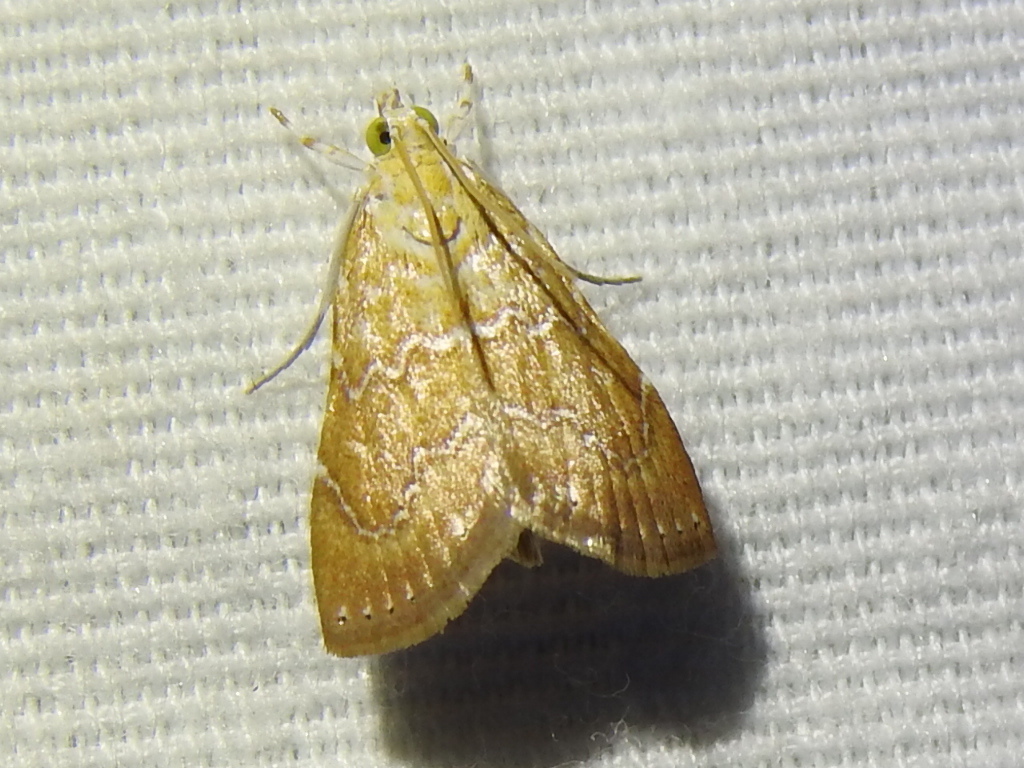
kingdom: Animalia
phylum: Arthropoda
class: Insecta
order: Lepidoptera
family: Crambidae
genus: Glaphyria
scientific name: Glaphyria sesquistrialis
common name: White-roped glaphyria
